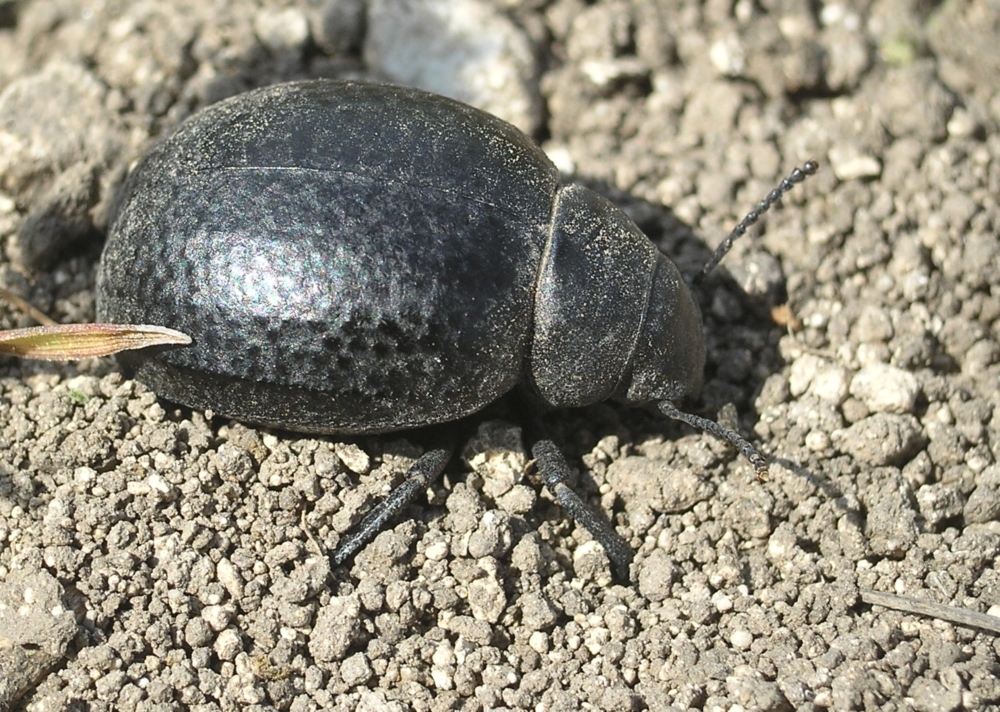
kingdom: Animalia
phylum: Arthropoda
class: Insecta
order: Coleoptera
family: Tenebrionidae
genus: Pimelia
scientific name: Pimelia subglobosa
